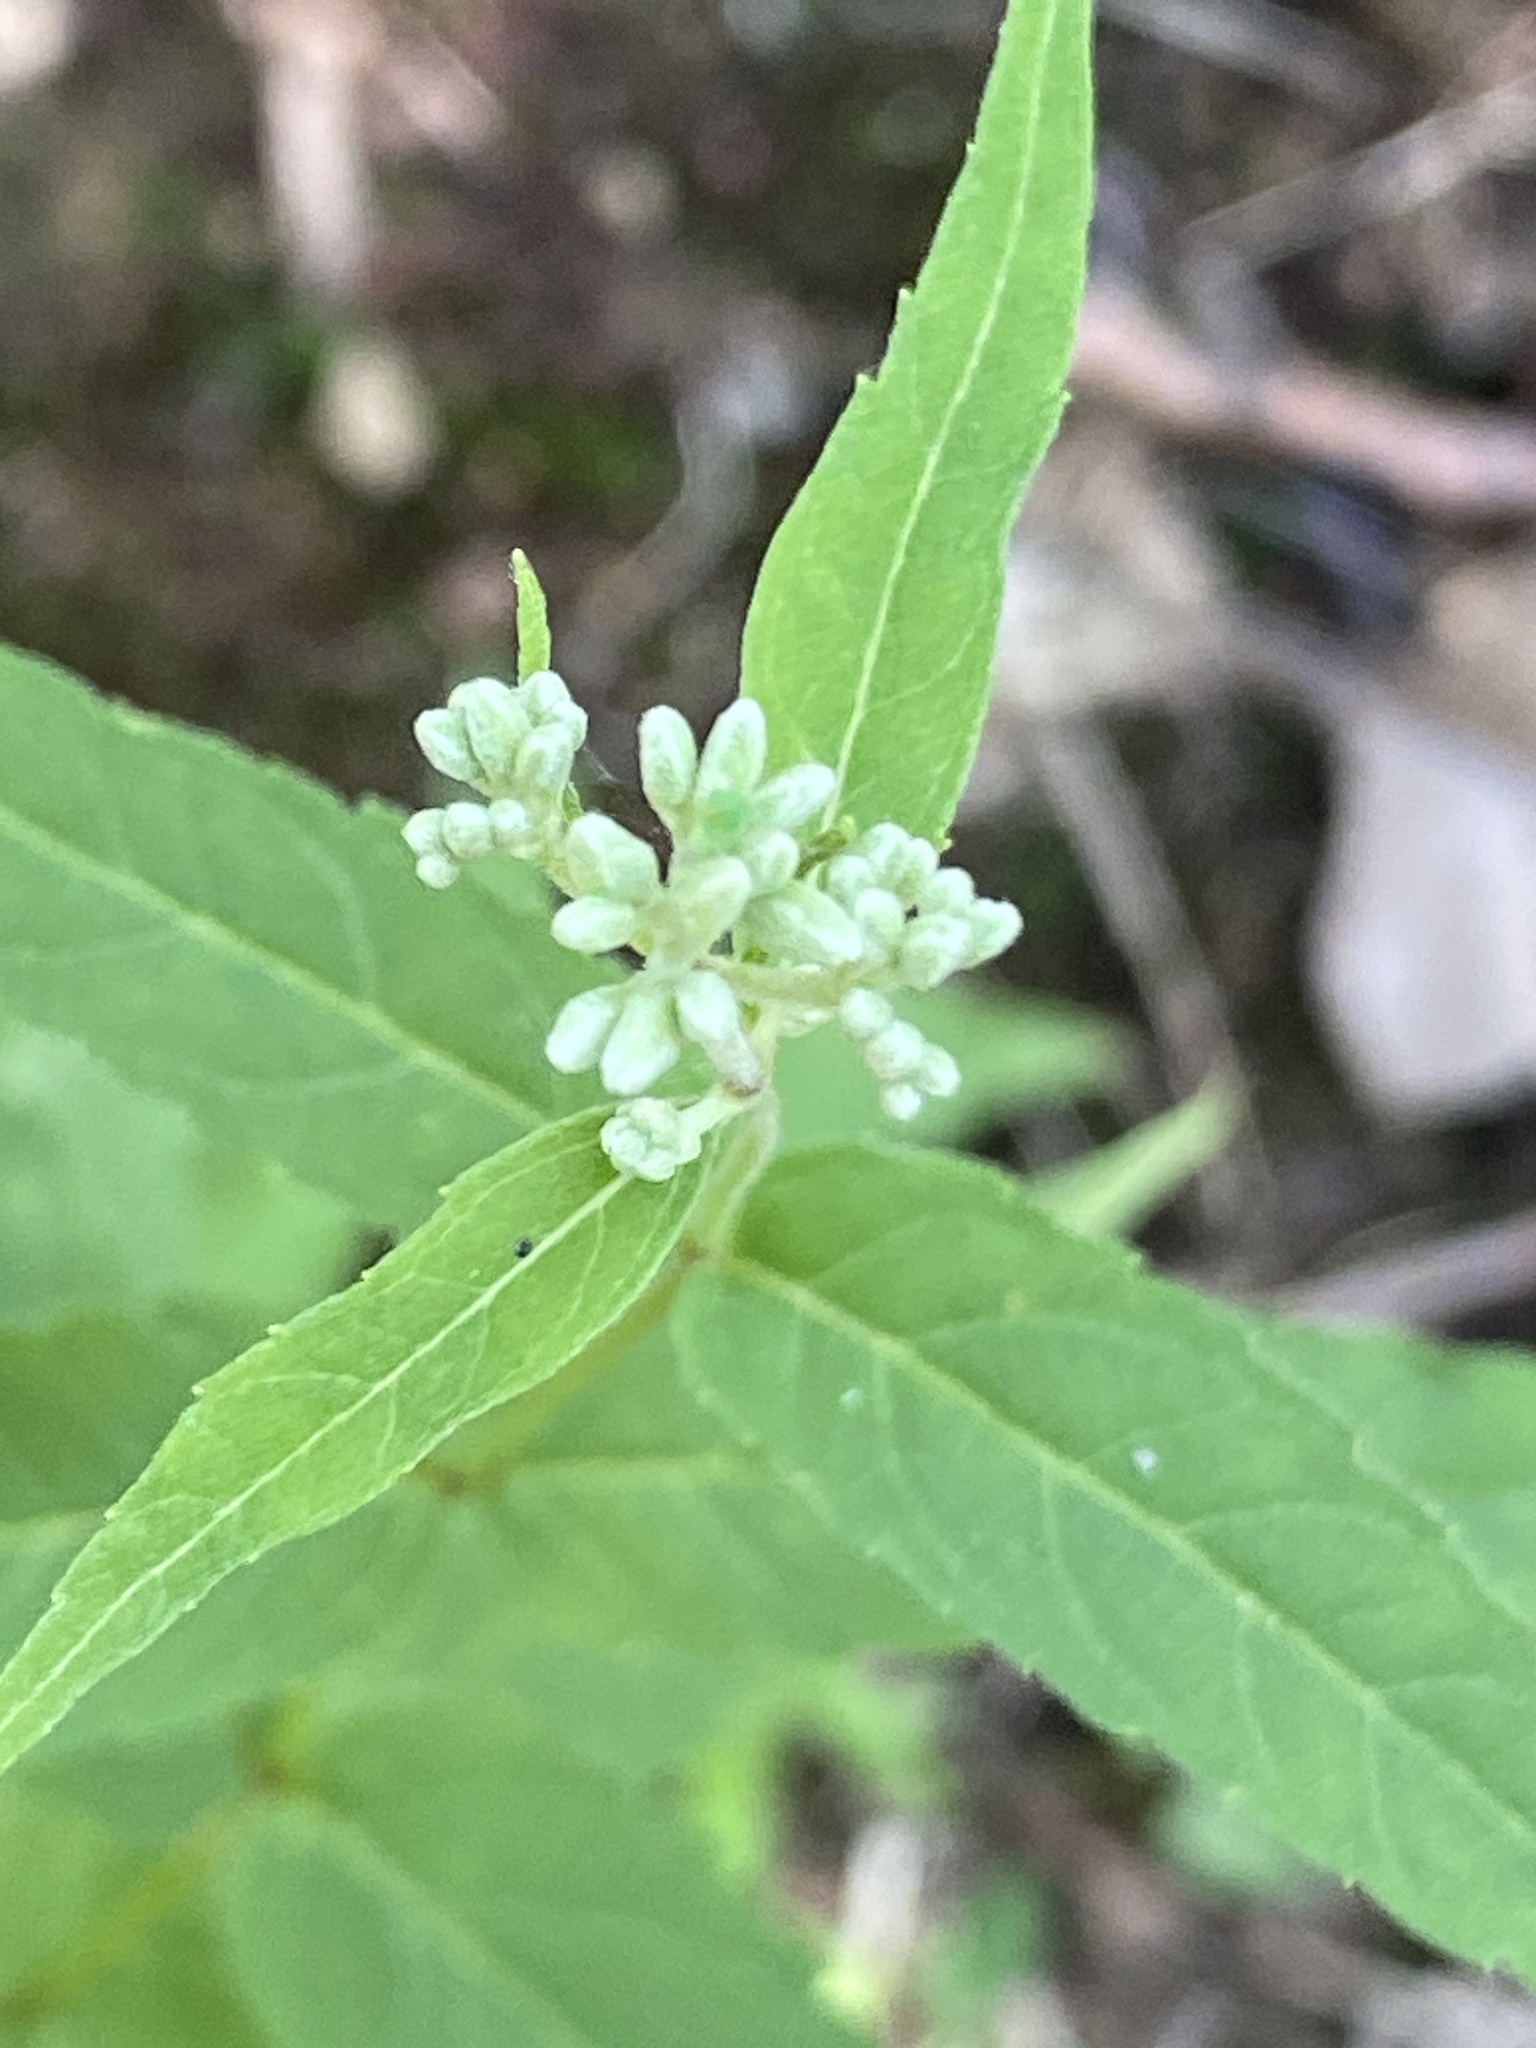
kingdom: Plantae
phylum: Tracheophyta
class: Magnoliopsida
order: Asterales
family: Asteraceae
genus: Eupatorium
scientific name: Eupatorium sessilifolium
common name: Upland boneset
